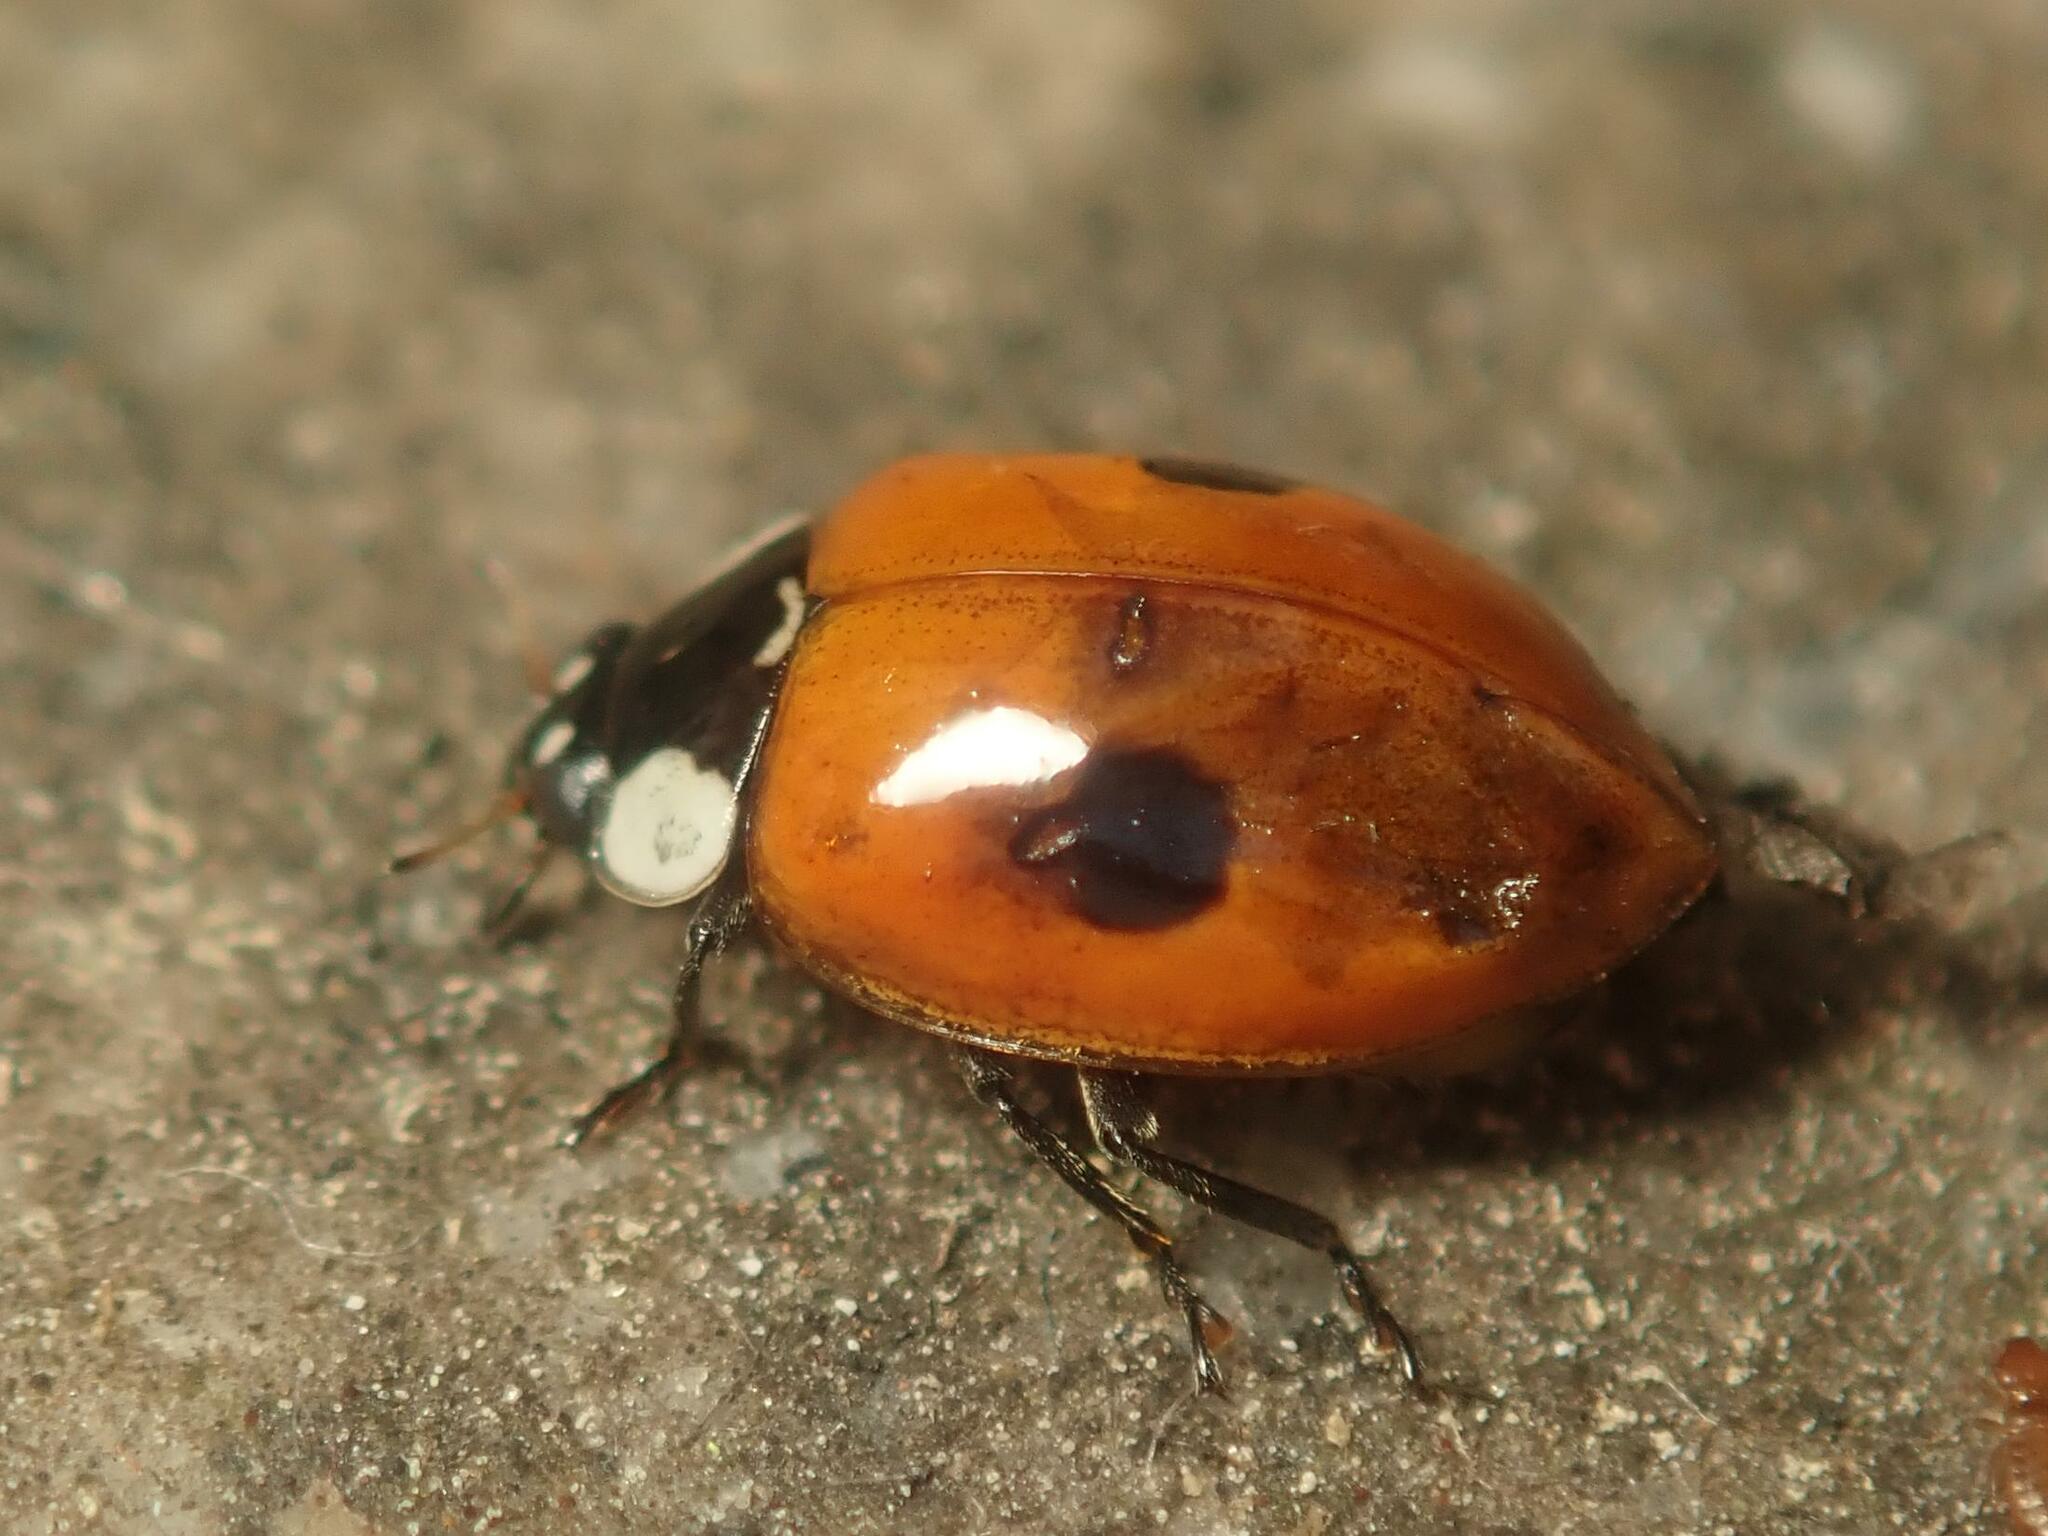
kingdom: Animalia
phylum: Arthropoda
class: Insecta
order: Coleoptera
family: Coccinellidae
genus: Adalia
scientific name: Adalia bipunctata
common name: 2-spot ladybird
